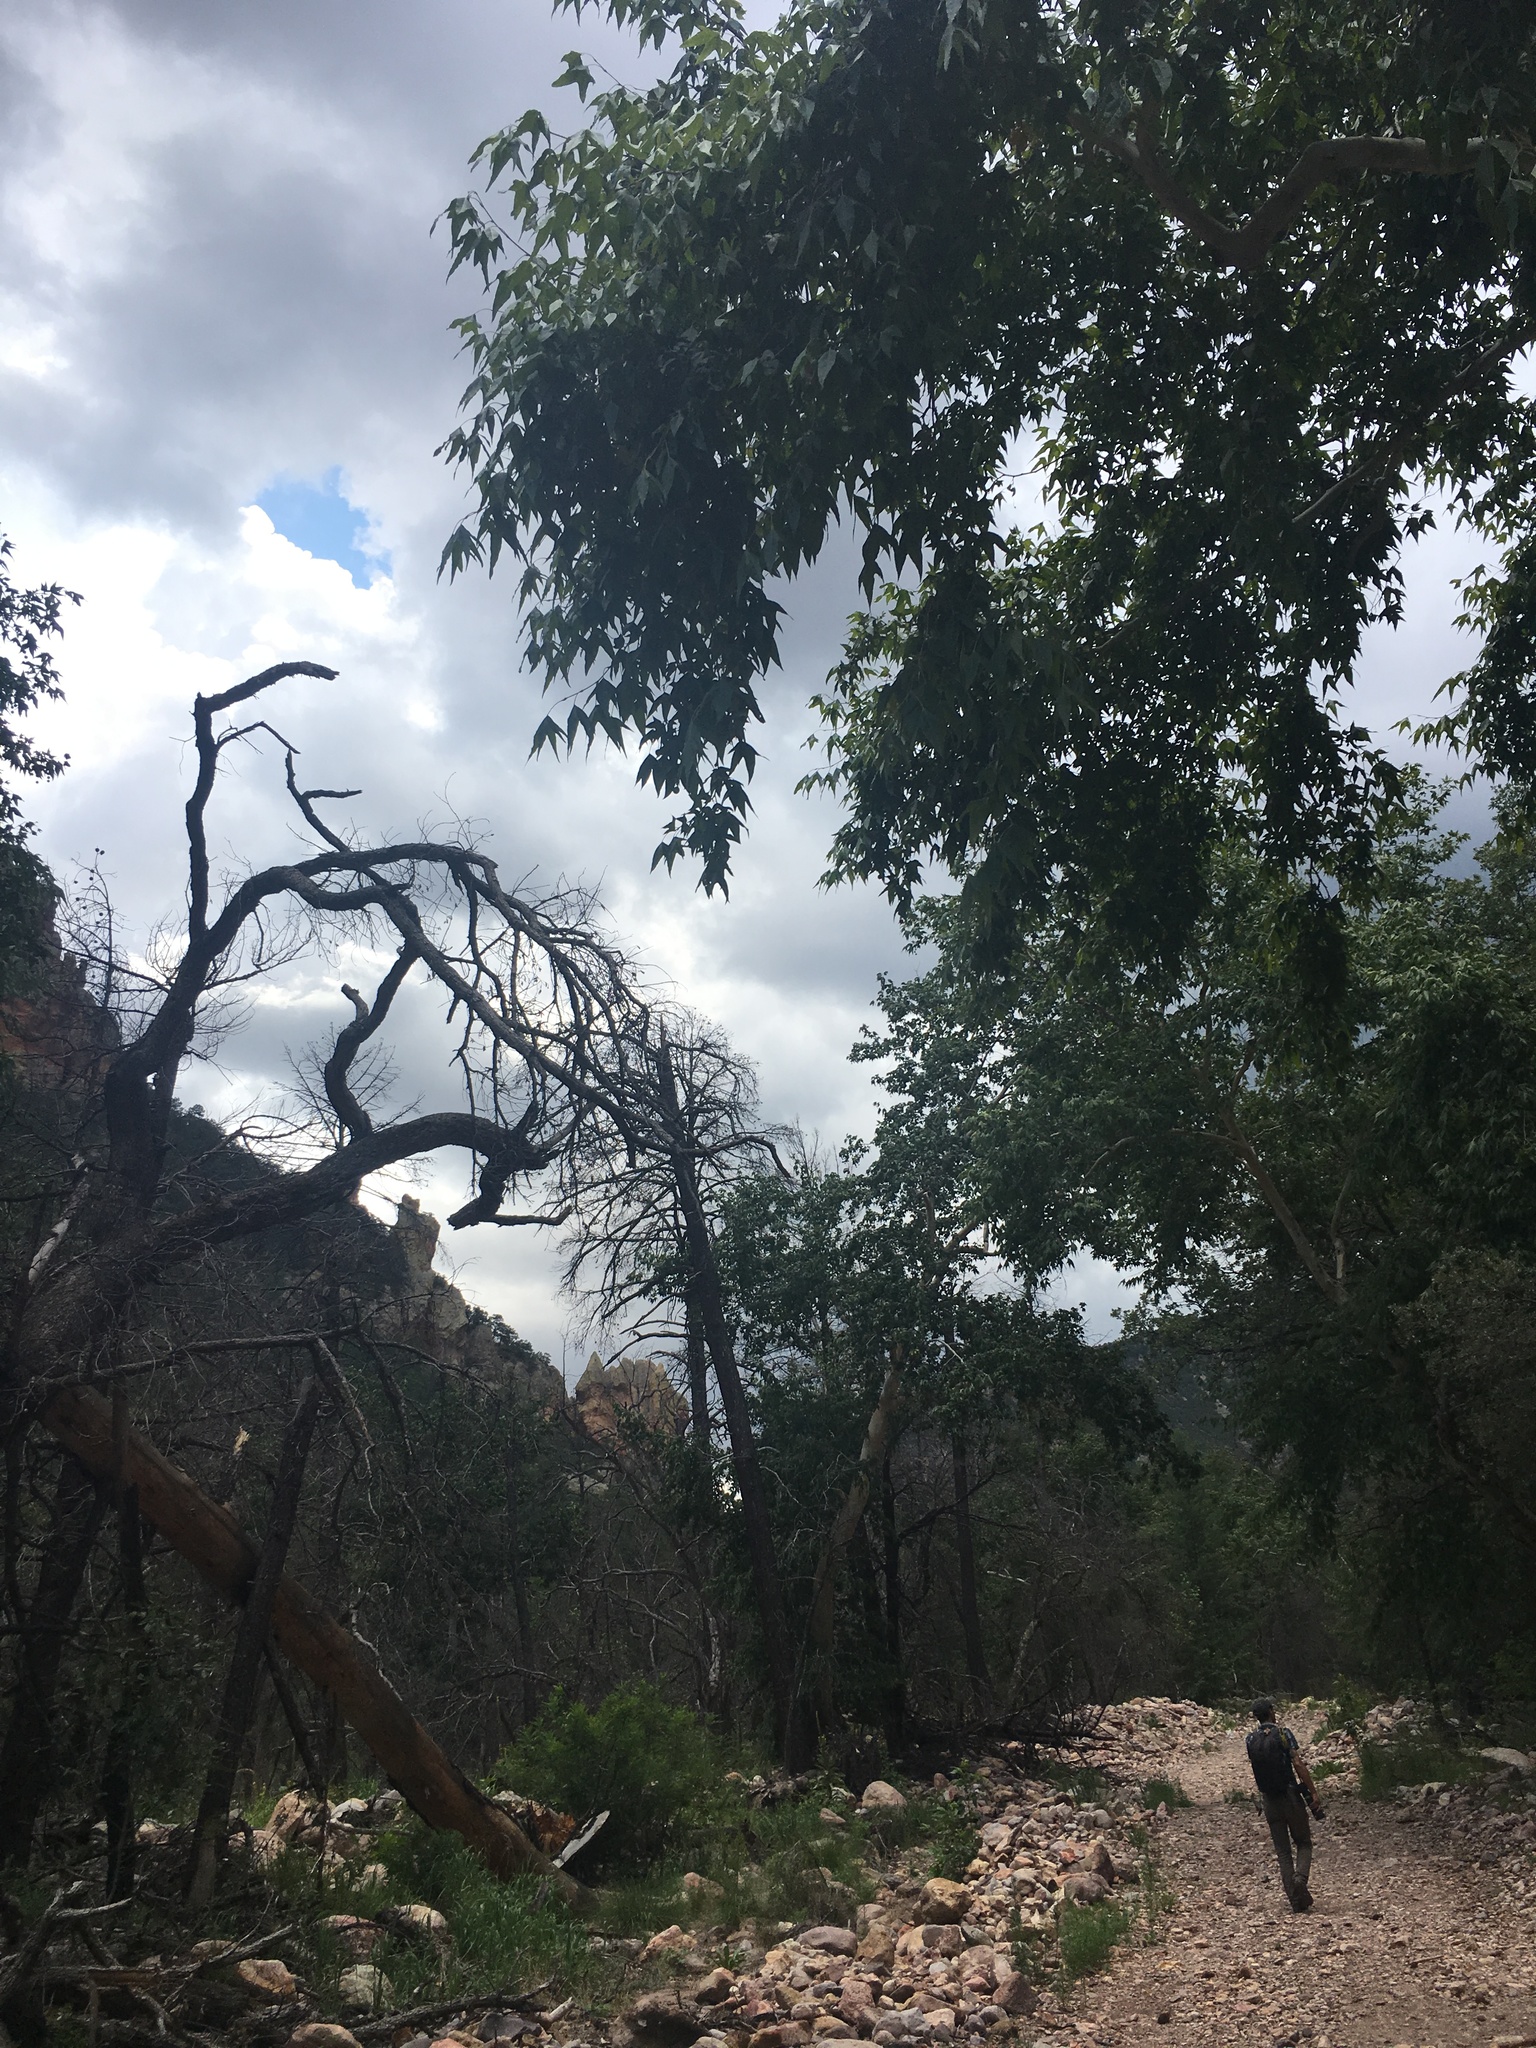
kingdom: Plantae
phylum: Tracheophyta
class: Magnoliopsida
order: Proteales
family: Platanaceae
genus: Platanus
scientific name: Platanus wrightii
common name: Arizona sycamore
